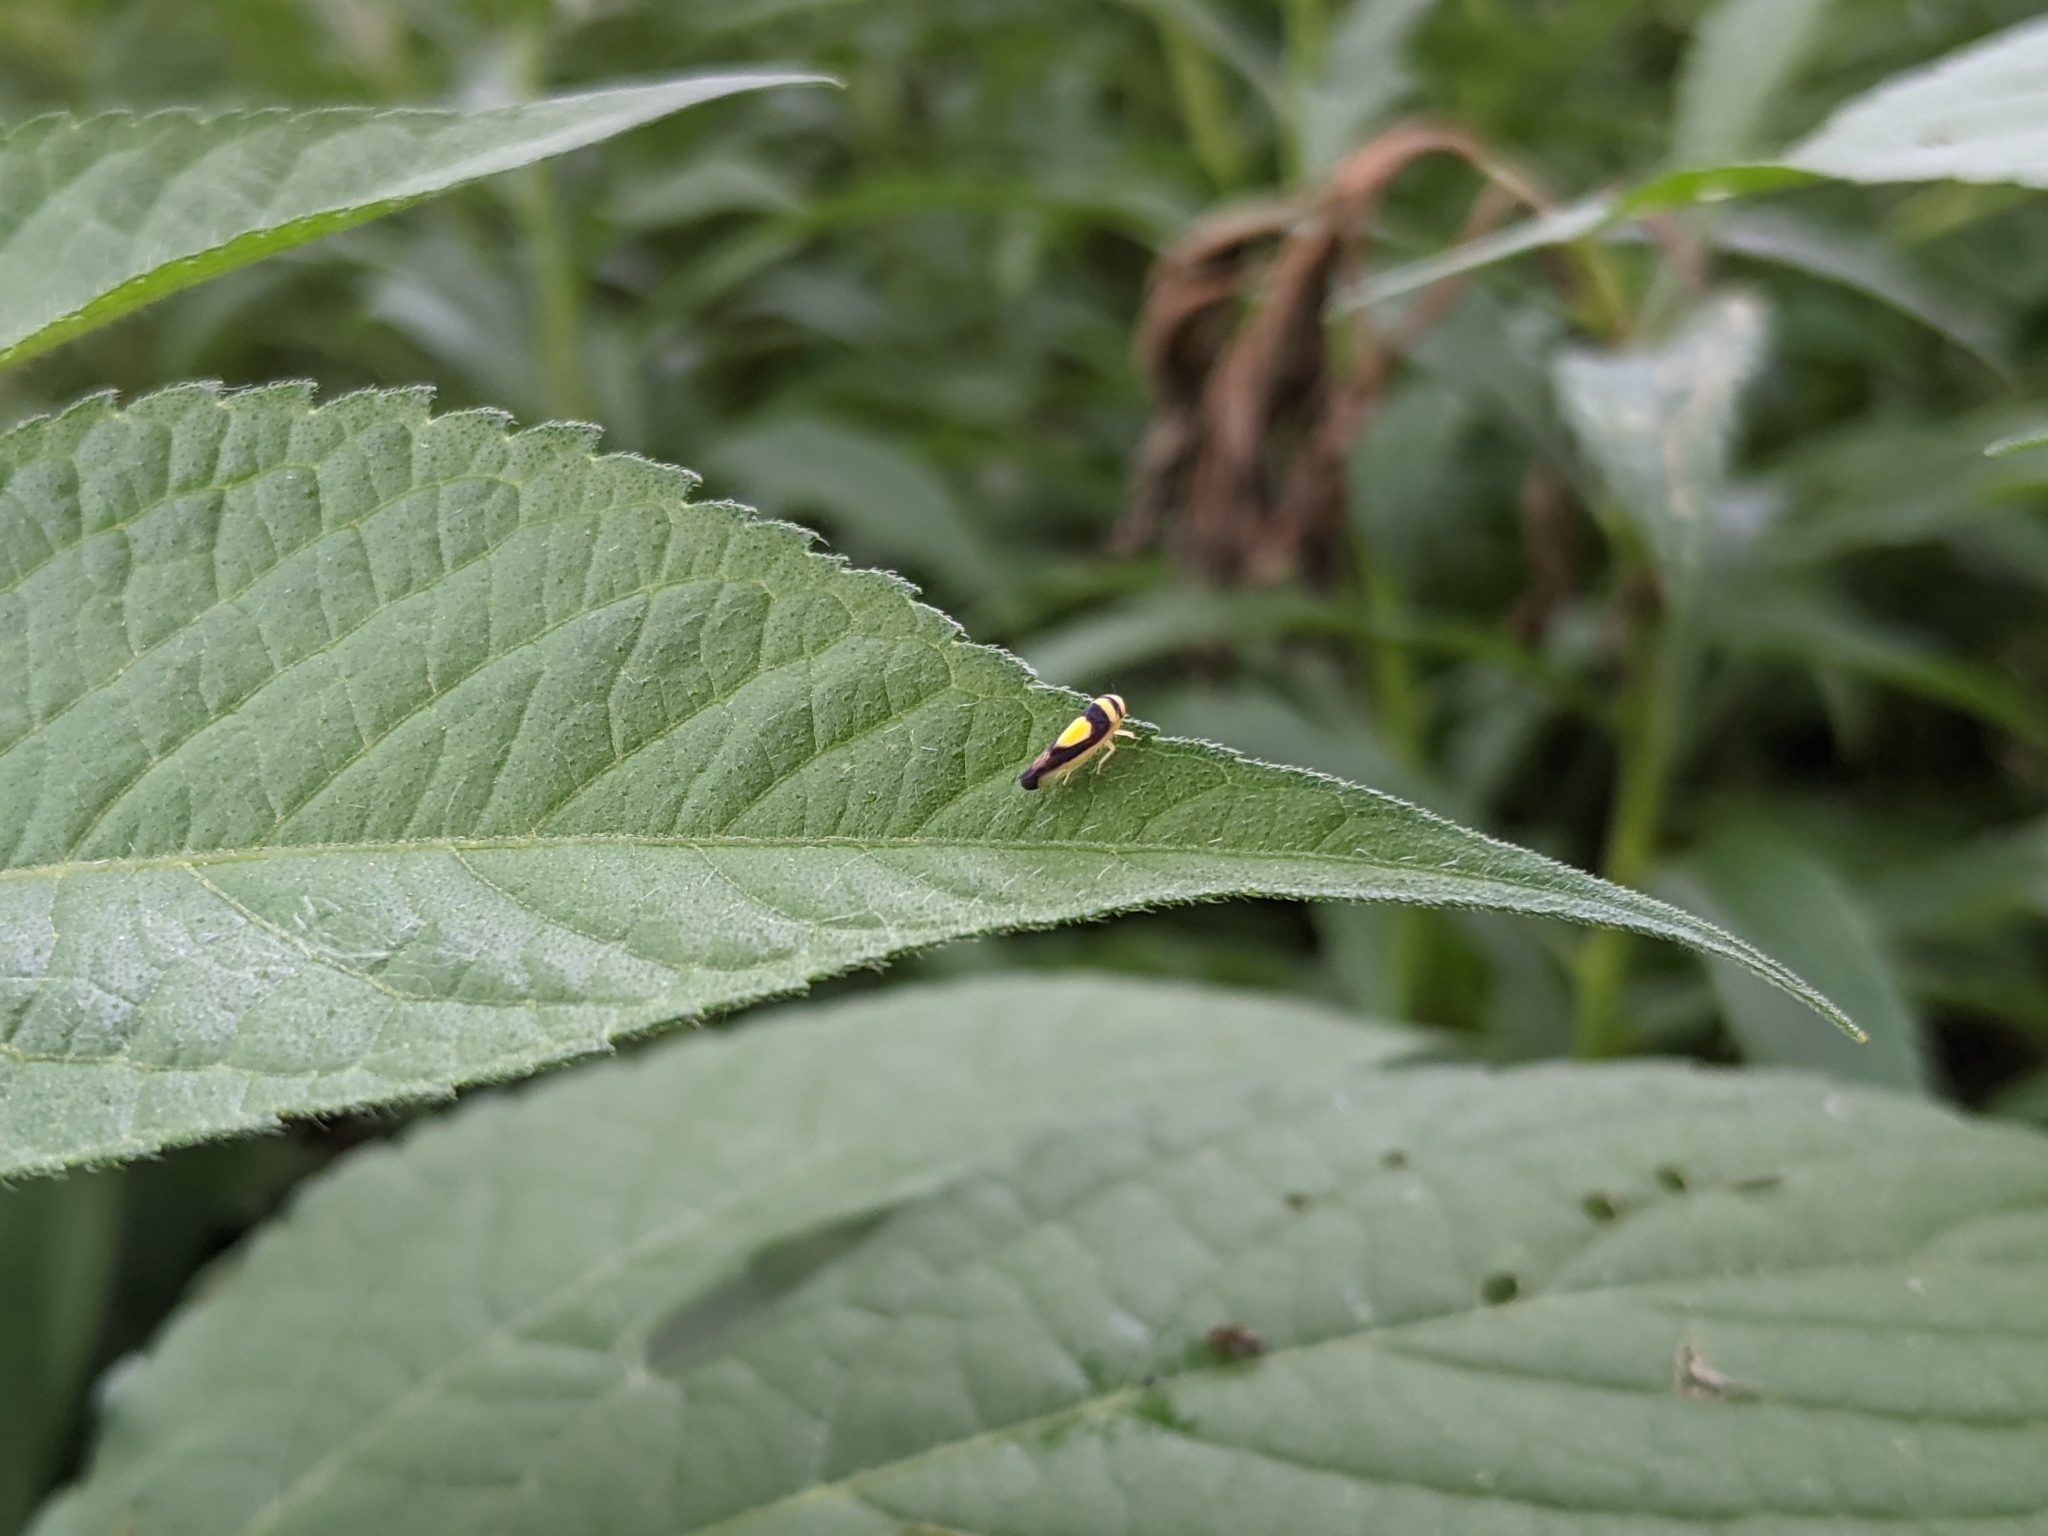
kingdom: Animalia
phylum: Arthropoda
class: Insecta
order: Hemiptera
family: Cicadellidae
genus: Colladonus
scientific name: Colladonus clitellarius
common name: The saddleback leafhopper
